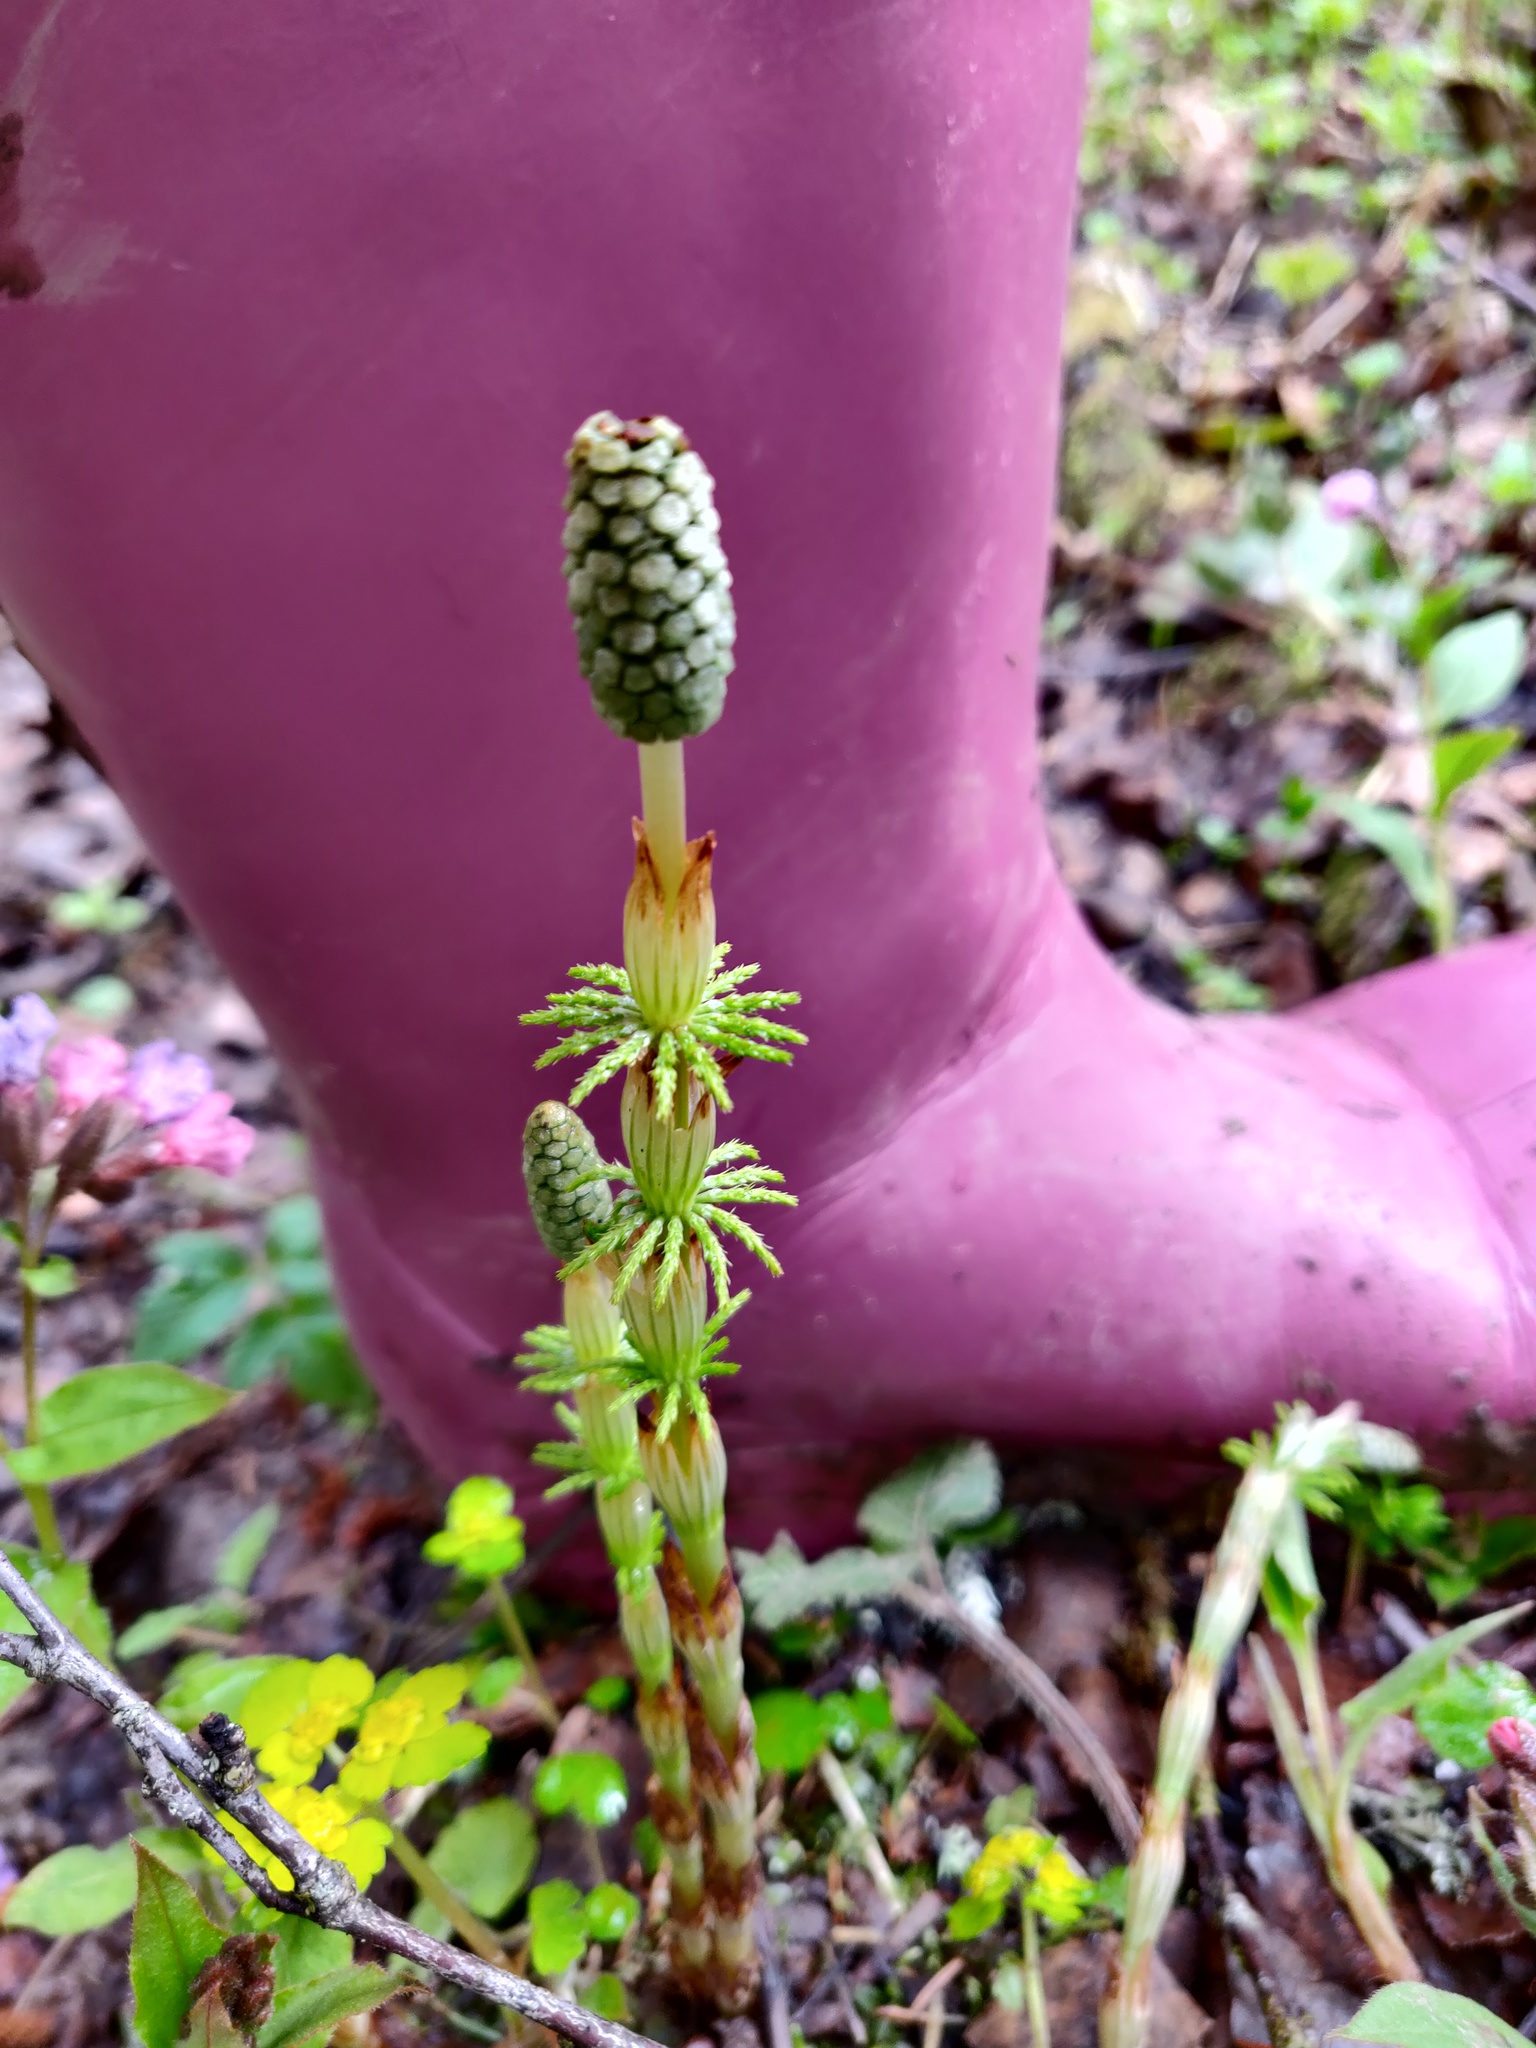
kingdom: Plantae
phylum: Tracheophyta
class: Polypodiopsida
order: Equisetales
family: Equisetaceae
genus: Equisetum
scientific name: Equisetum sylvaticum
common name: Wood horsetail
